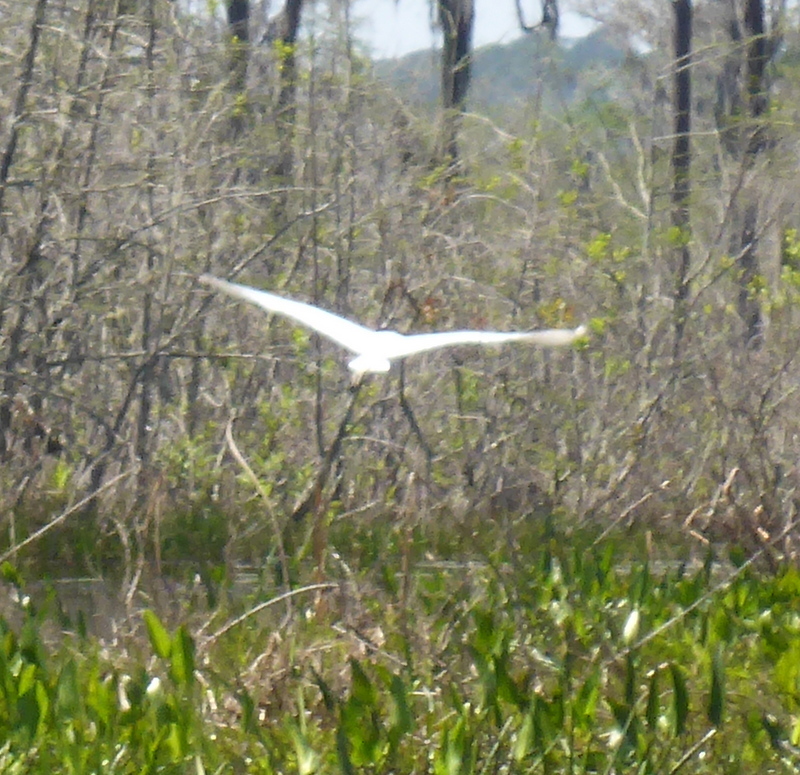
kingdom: Animalia
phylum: Chordata
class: Aves
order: Pelecaniformes
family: Ardeidae
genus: Ardea
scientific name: Ardea alba
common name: Great egret
